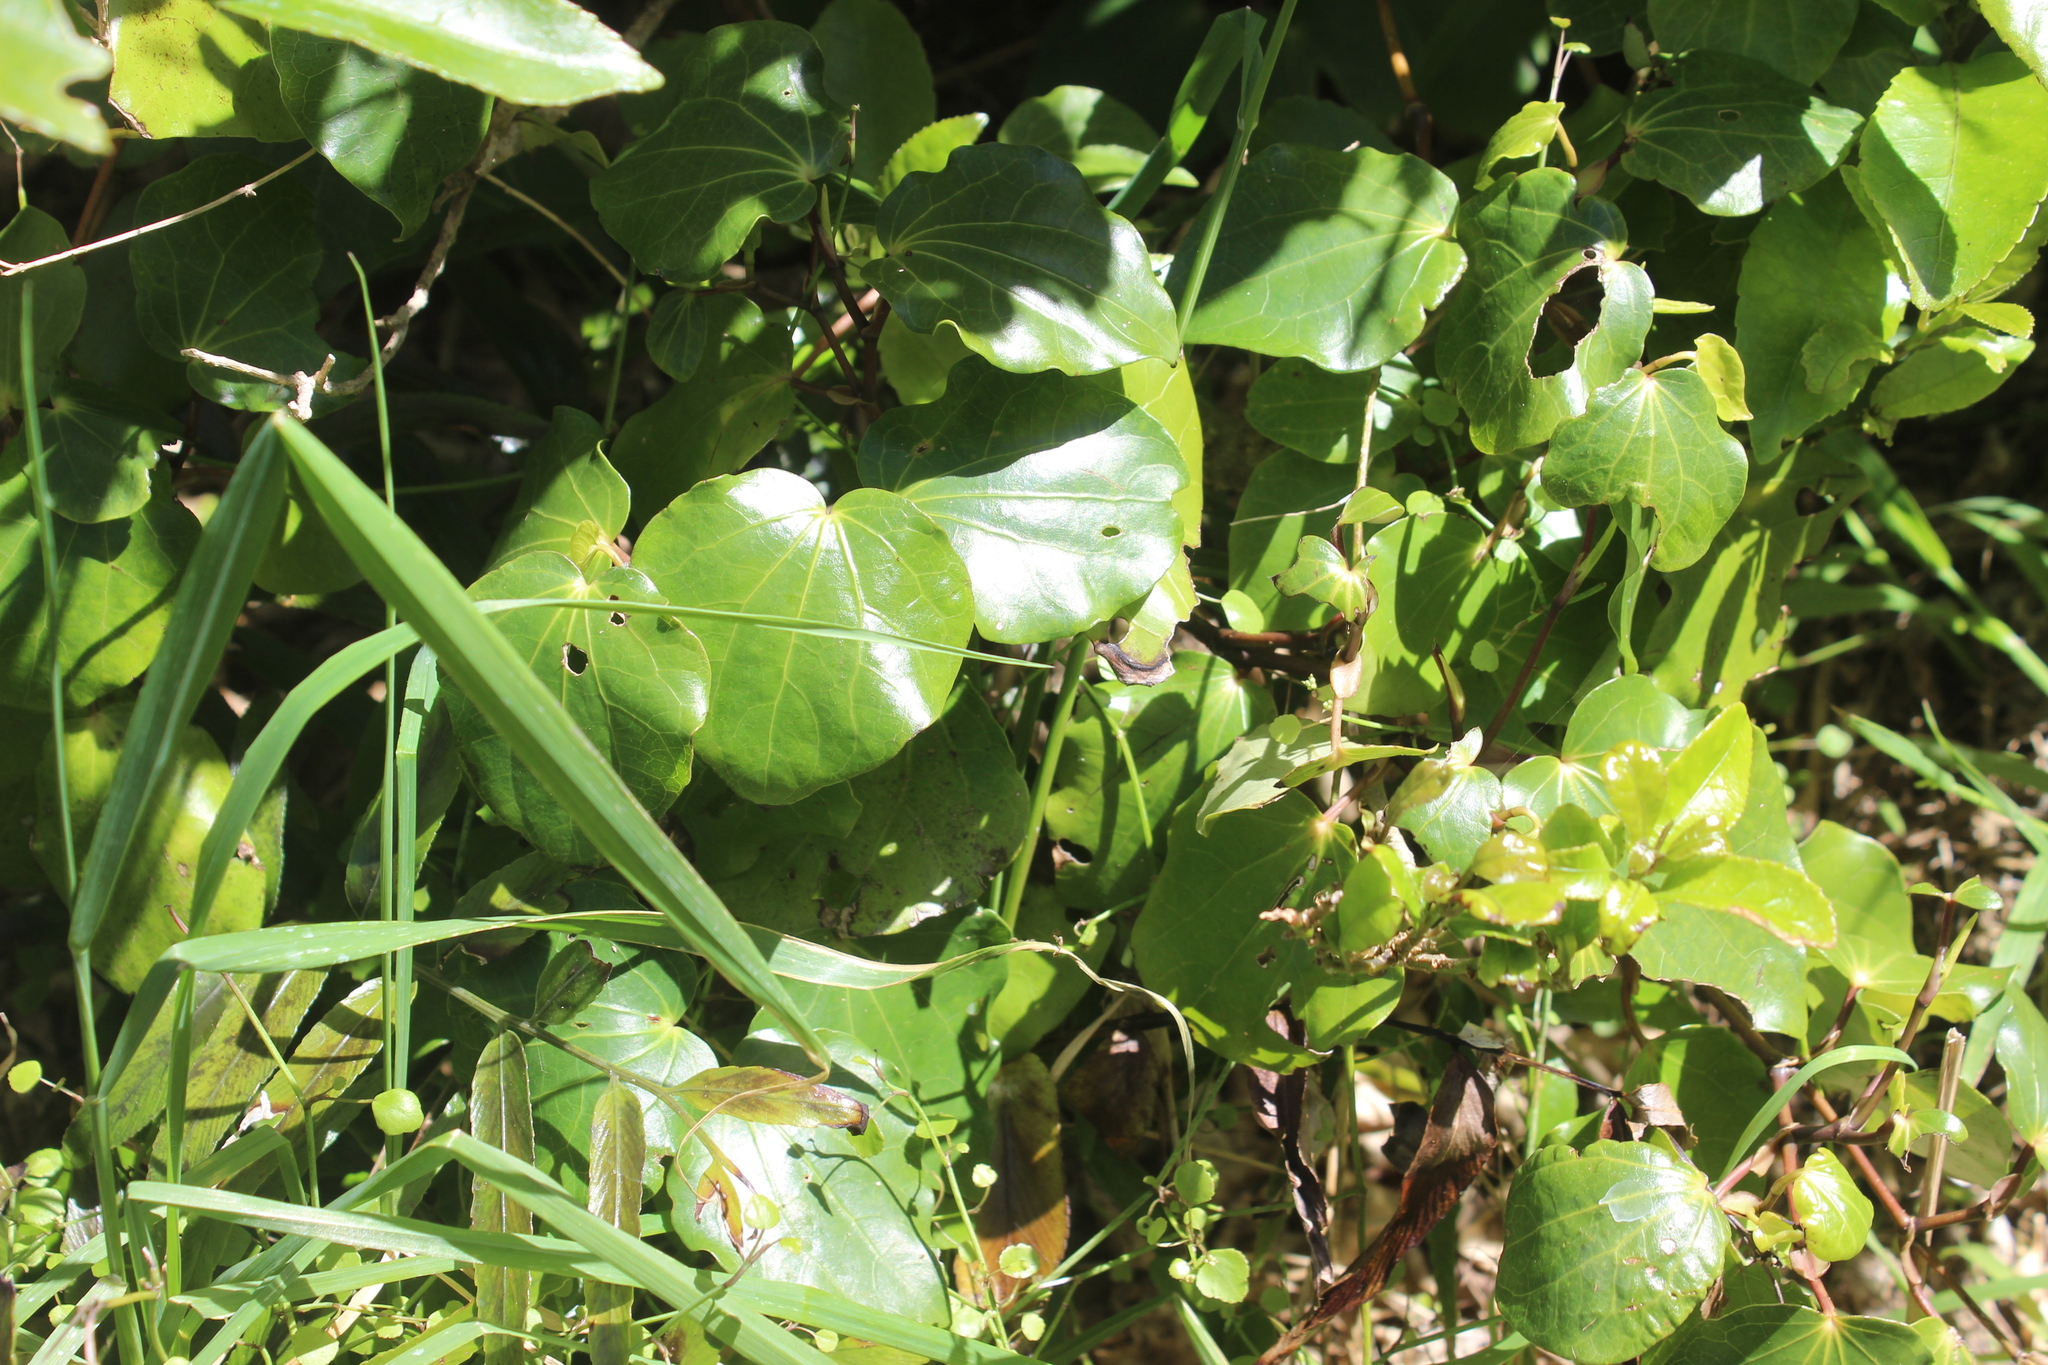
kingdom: Plantae
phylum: Tracheophyta
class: Magnoliopsida
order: Piperales
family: Piperaceae
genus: Macropiper
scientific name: Macropiper excelsum
